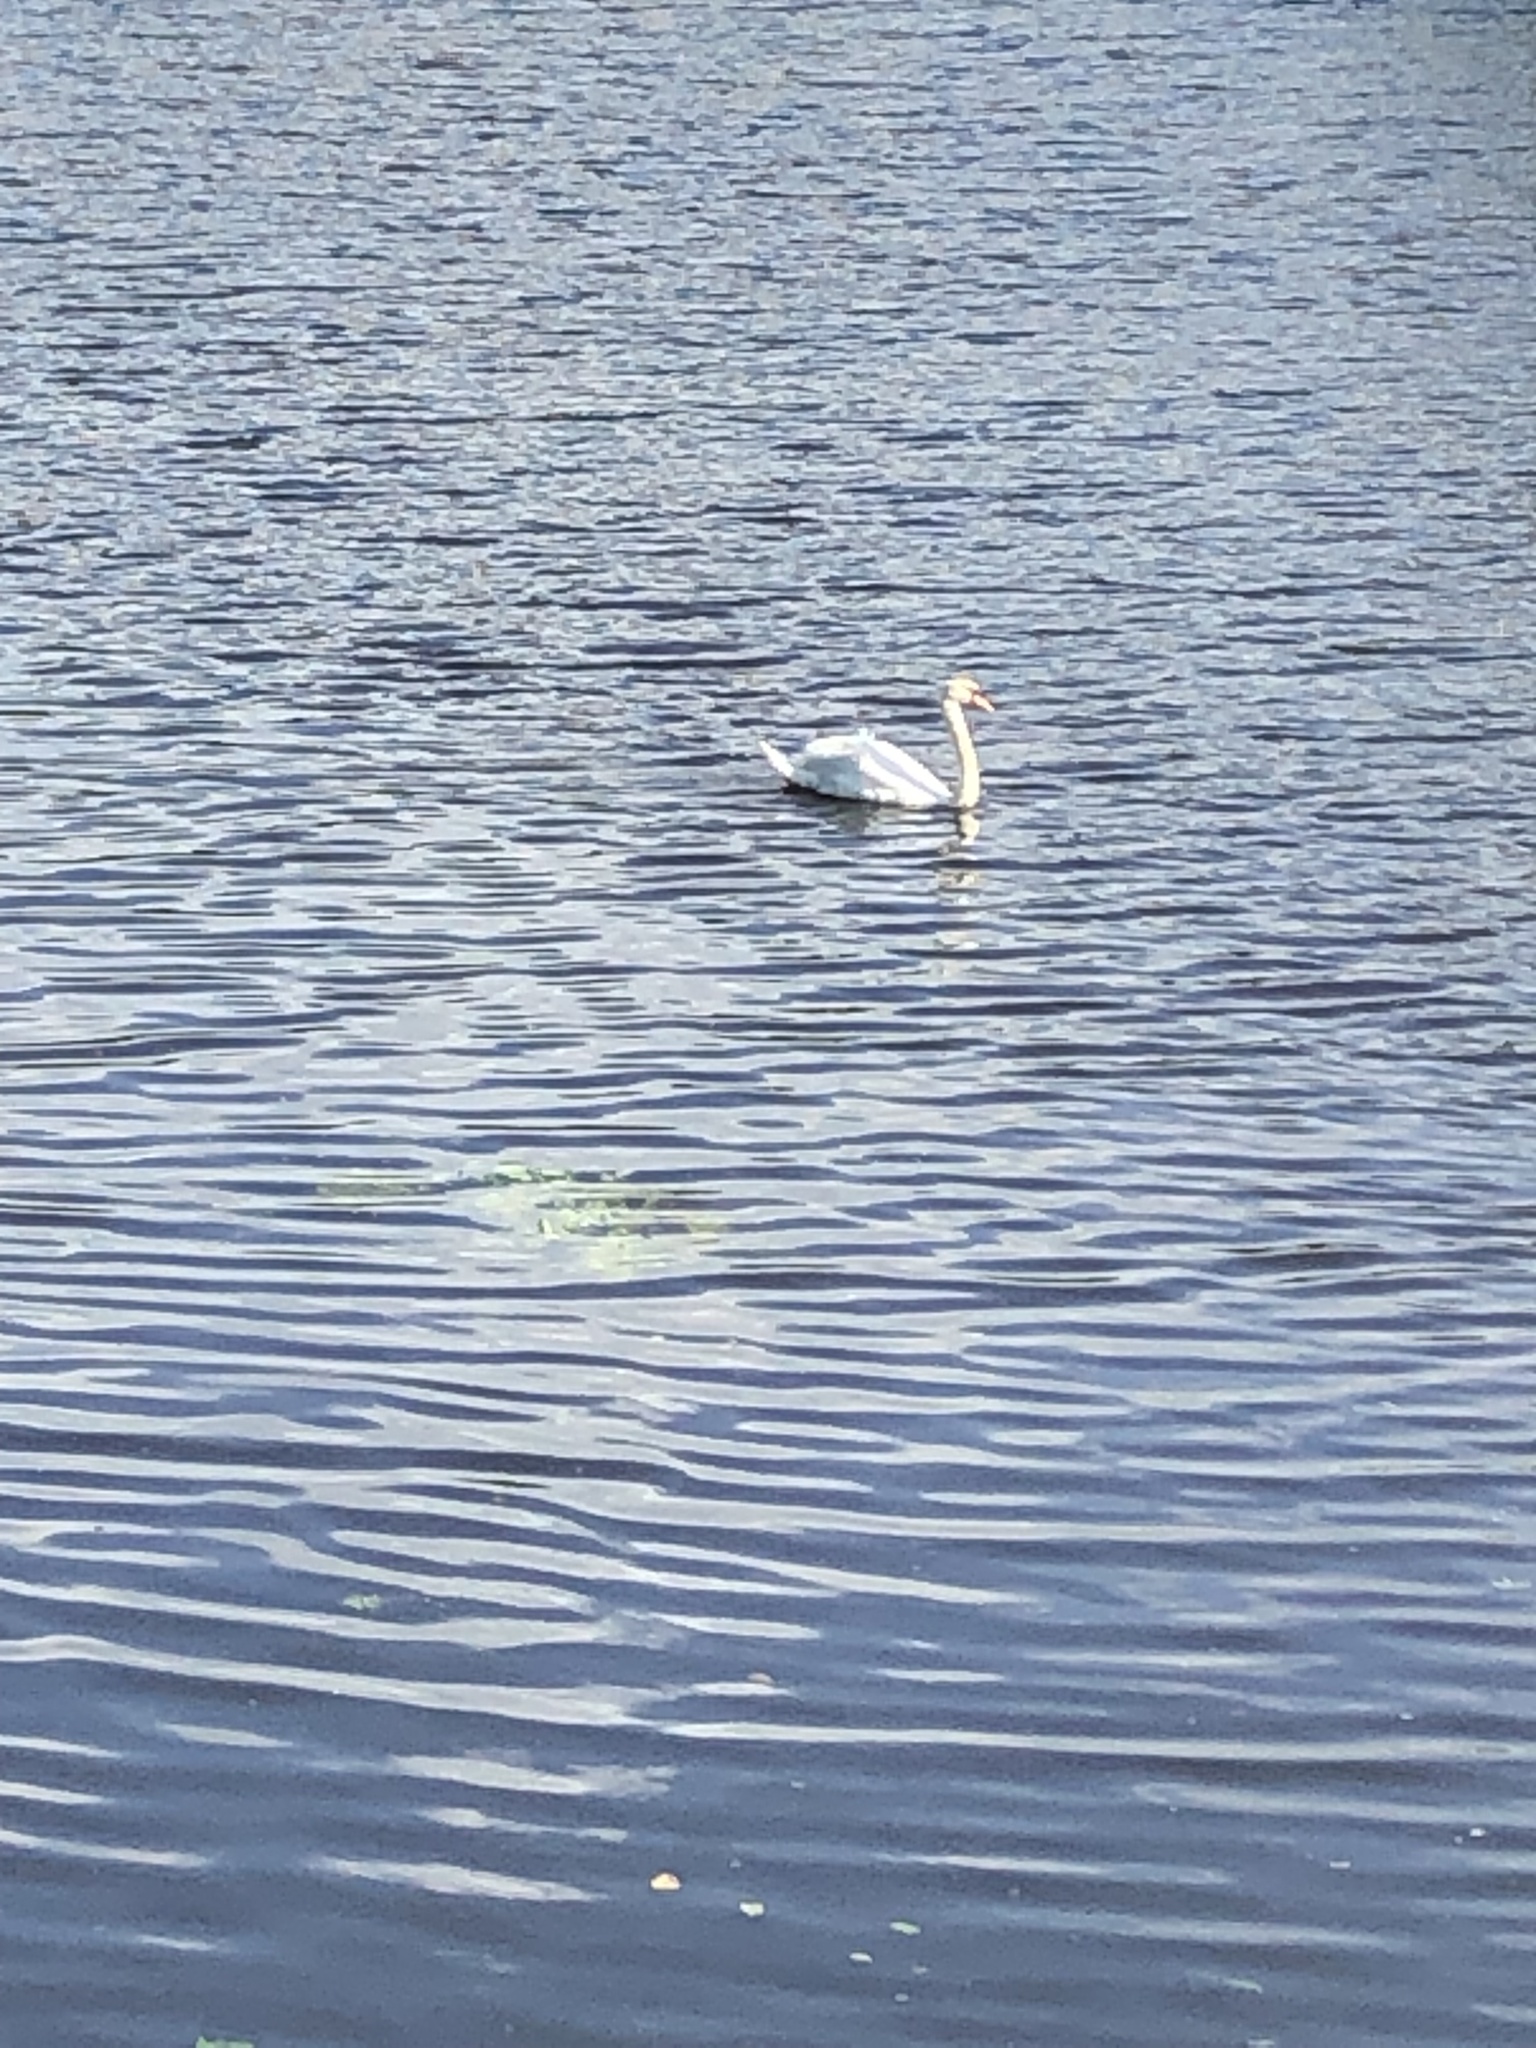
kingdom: Animalia
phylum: Chordata
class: Aves
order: Anseriformes
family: Anatidae
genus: Cygnus
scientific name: Cygnus olor
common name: Mute swan
